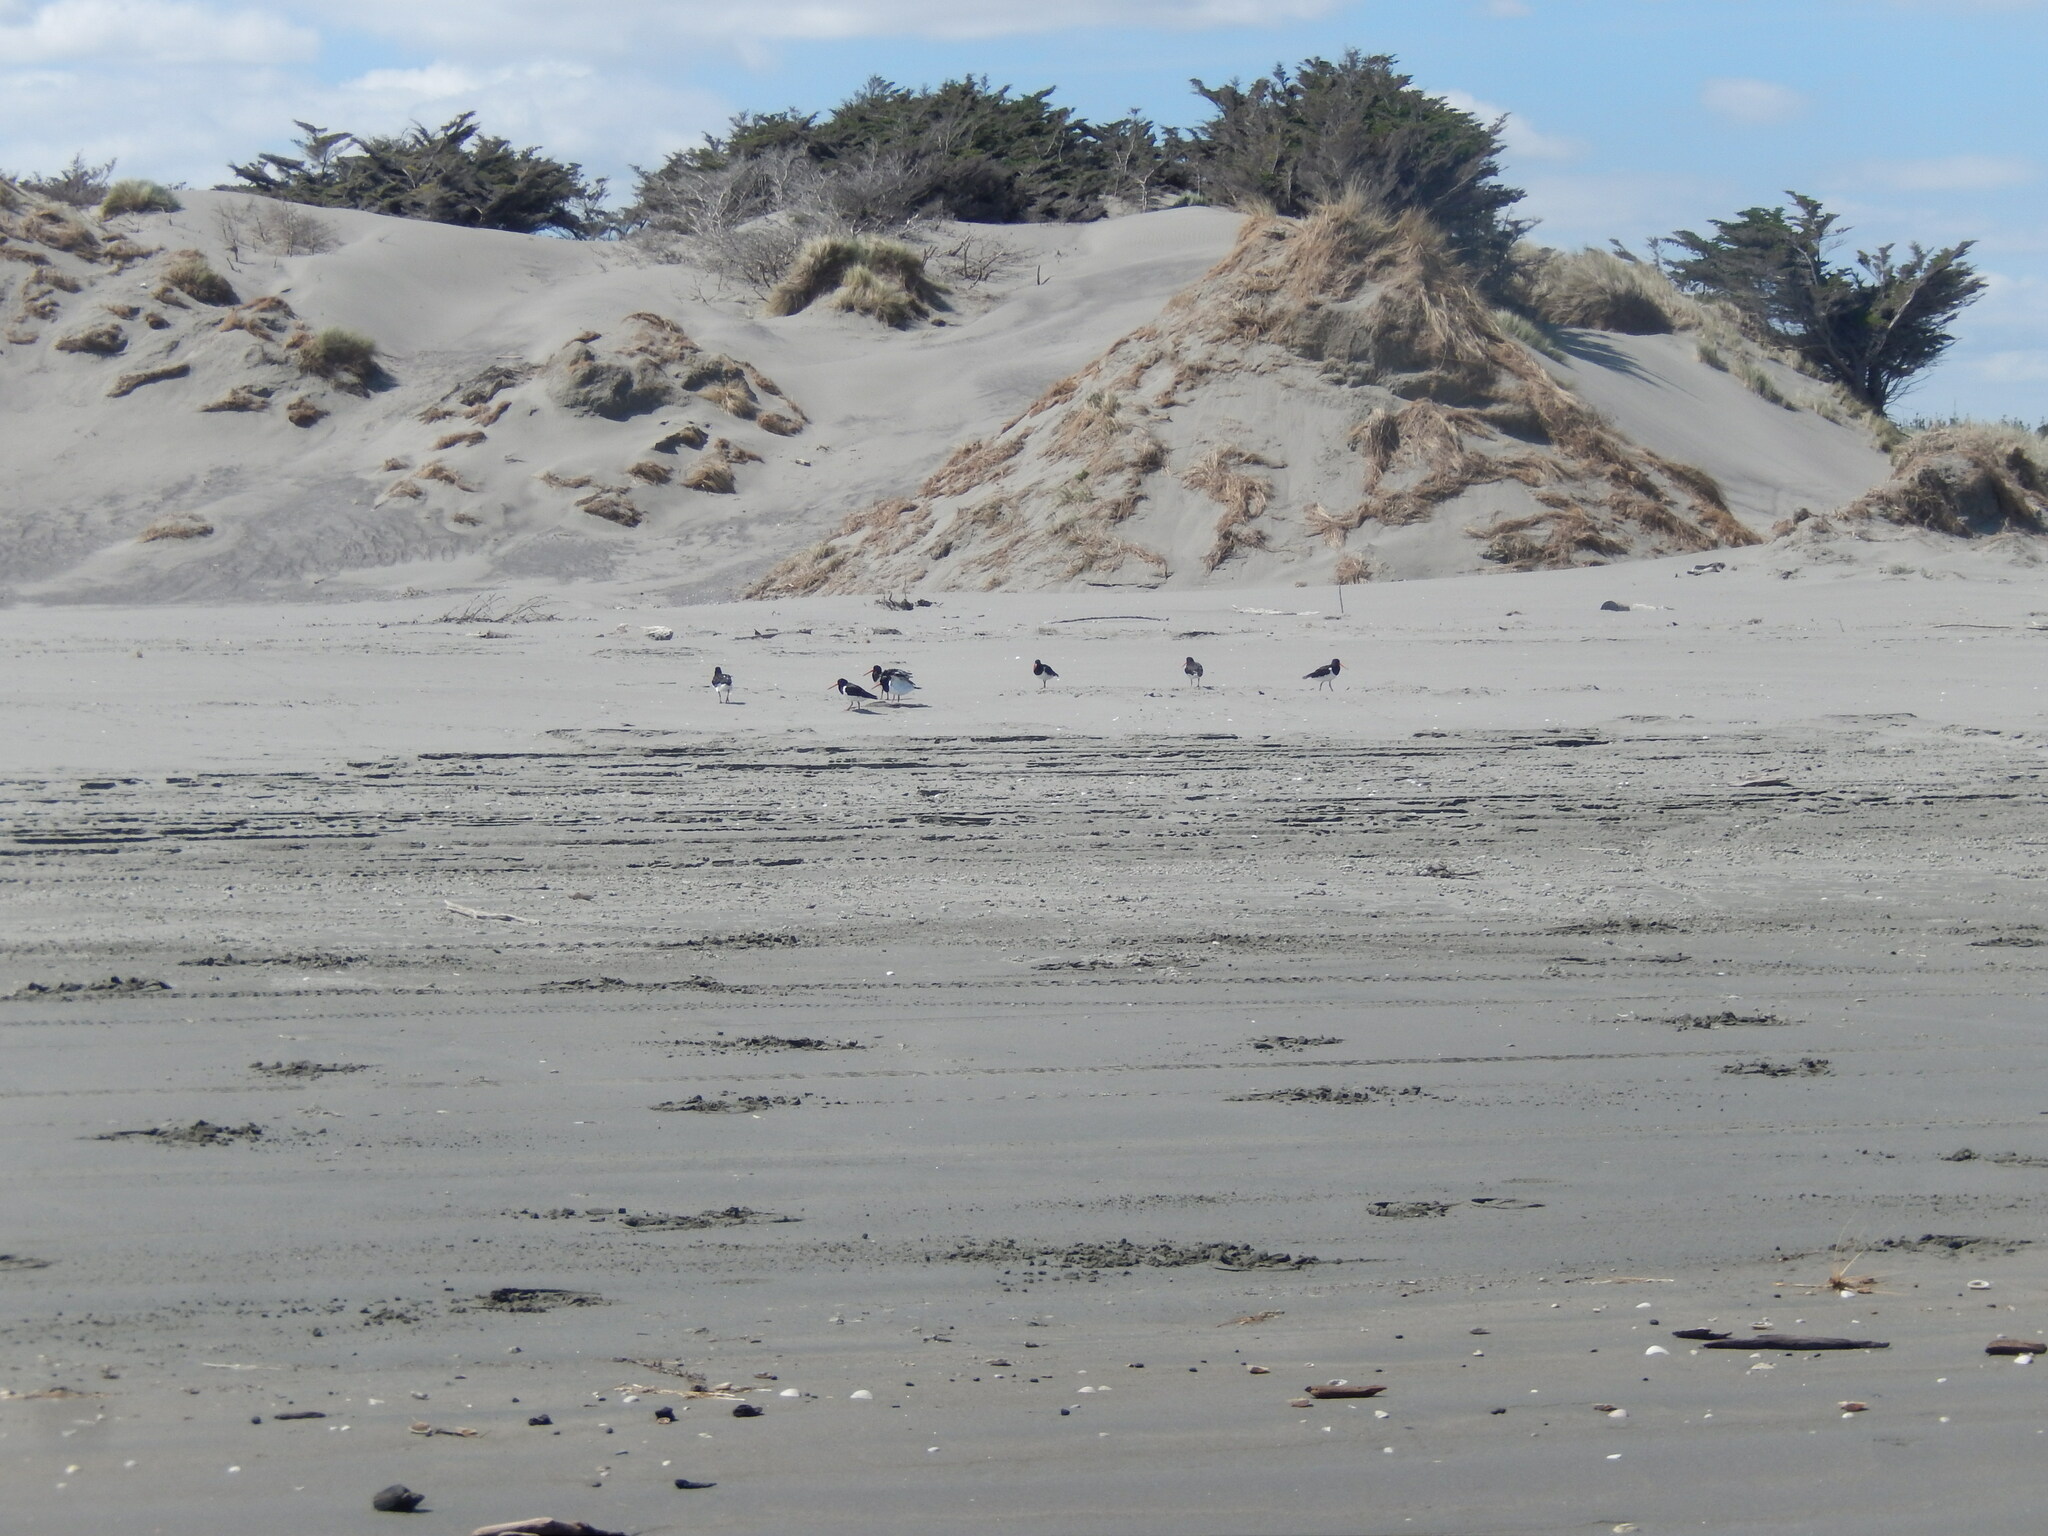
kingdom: Animalia
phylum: Chordata
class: Aves
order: Charadriiformes
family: Haematopodidae
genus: Haematopus
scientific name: Haematopus finschi
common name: South island oystercatcher
